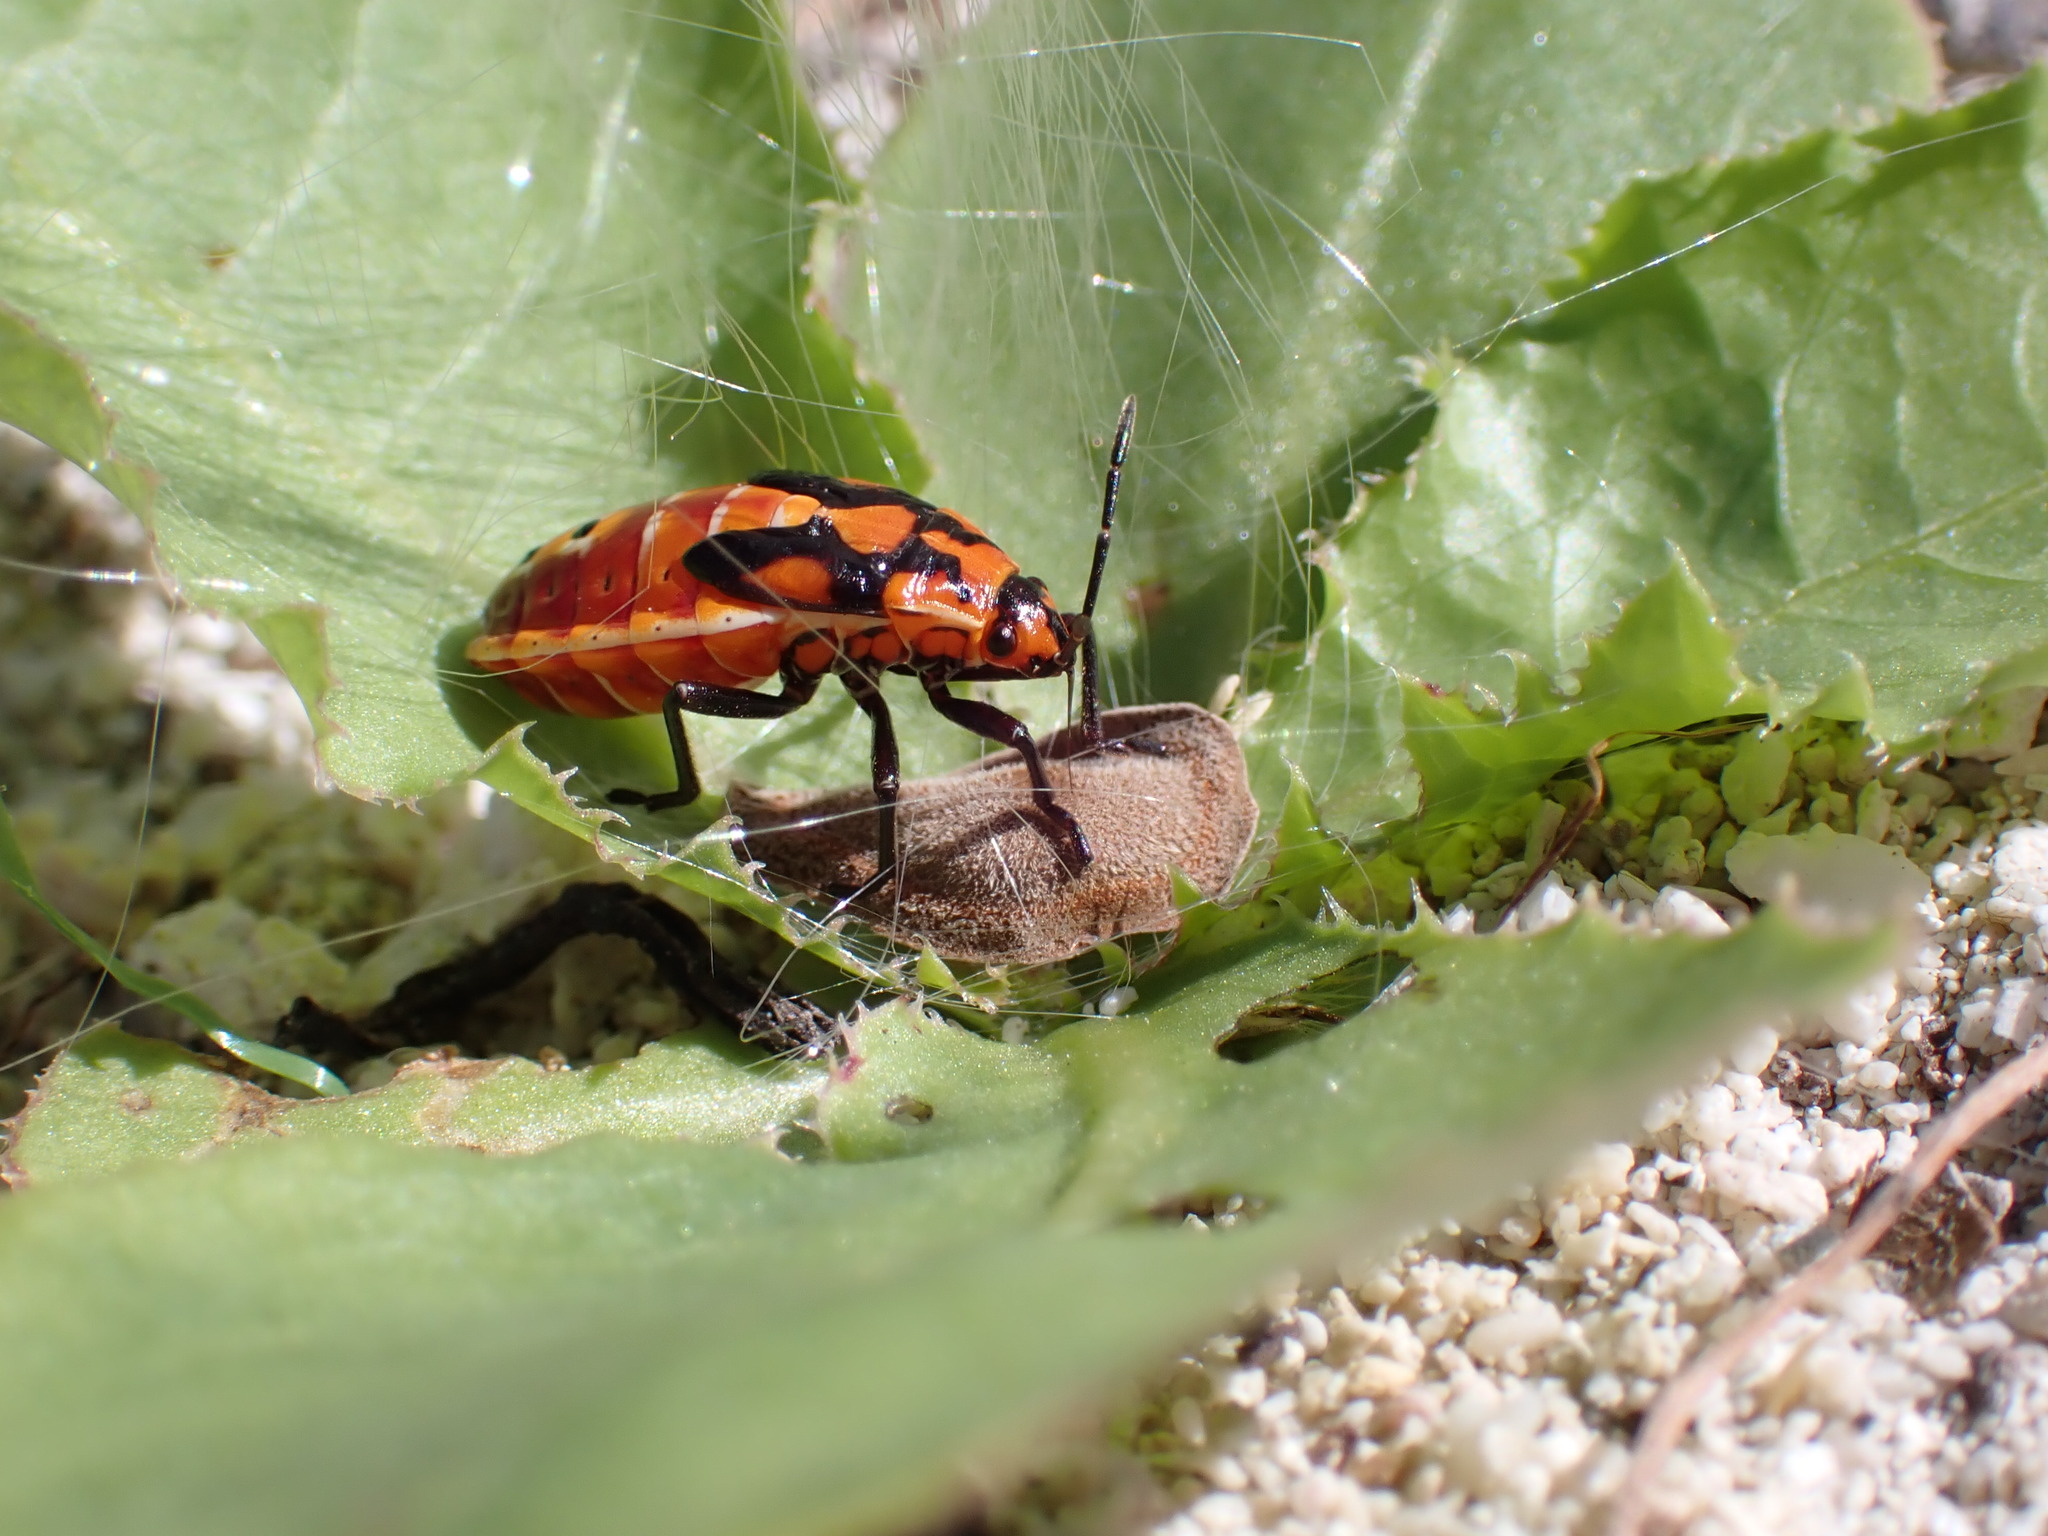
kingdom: Animalia
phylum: Arthropoda
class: Insecta
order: Hemiptera
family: Lygaeidae
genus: Spilostethus
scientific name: Spilostethus pandurus
